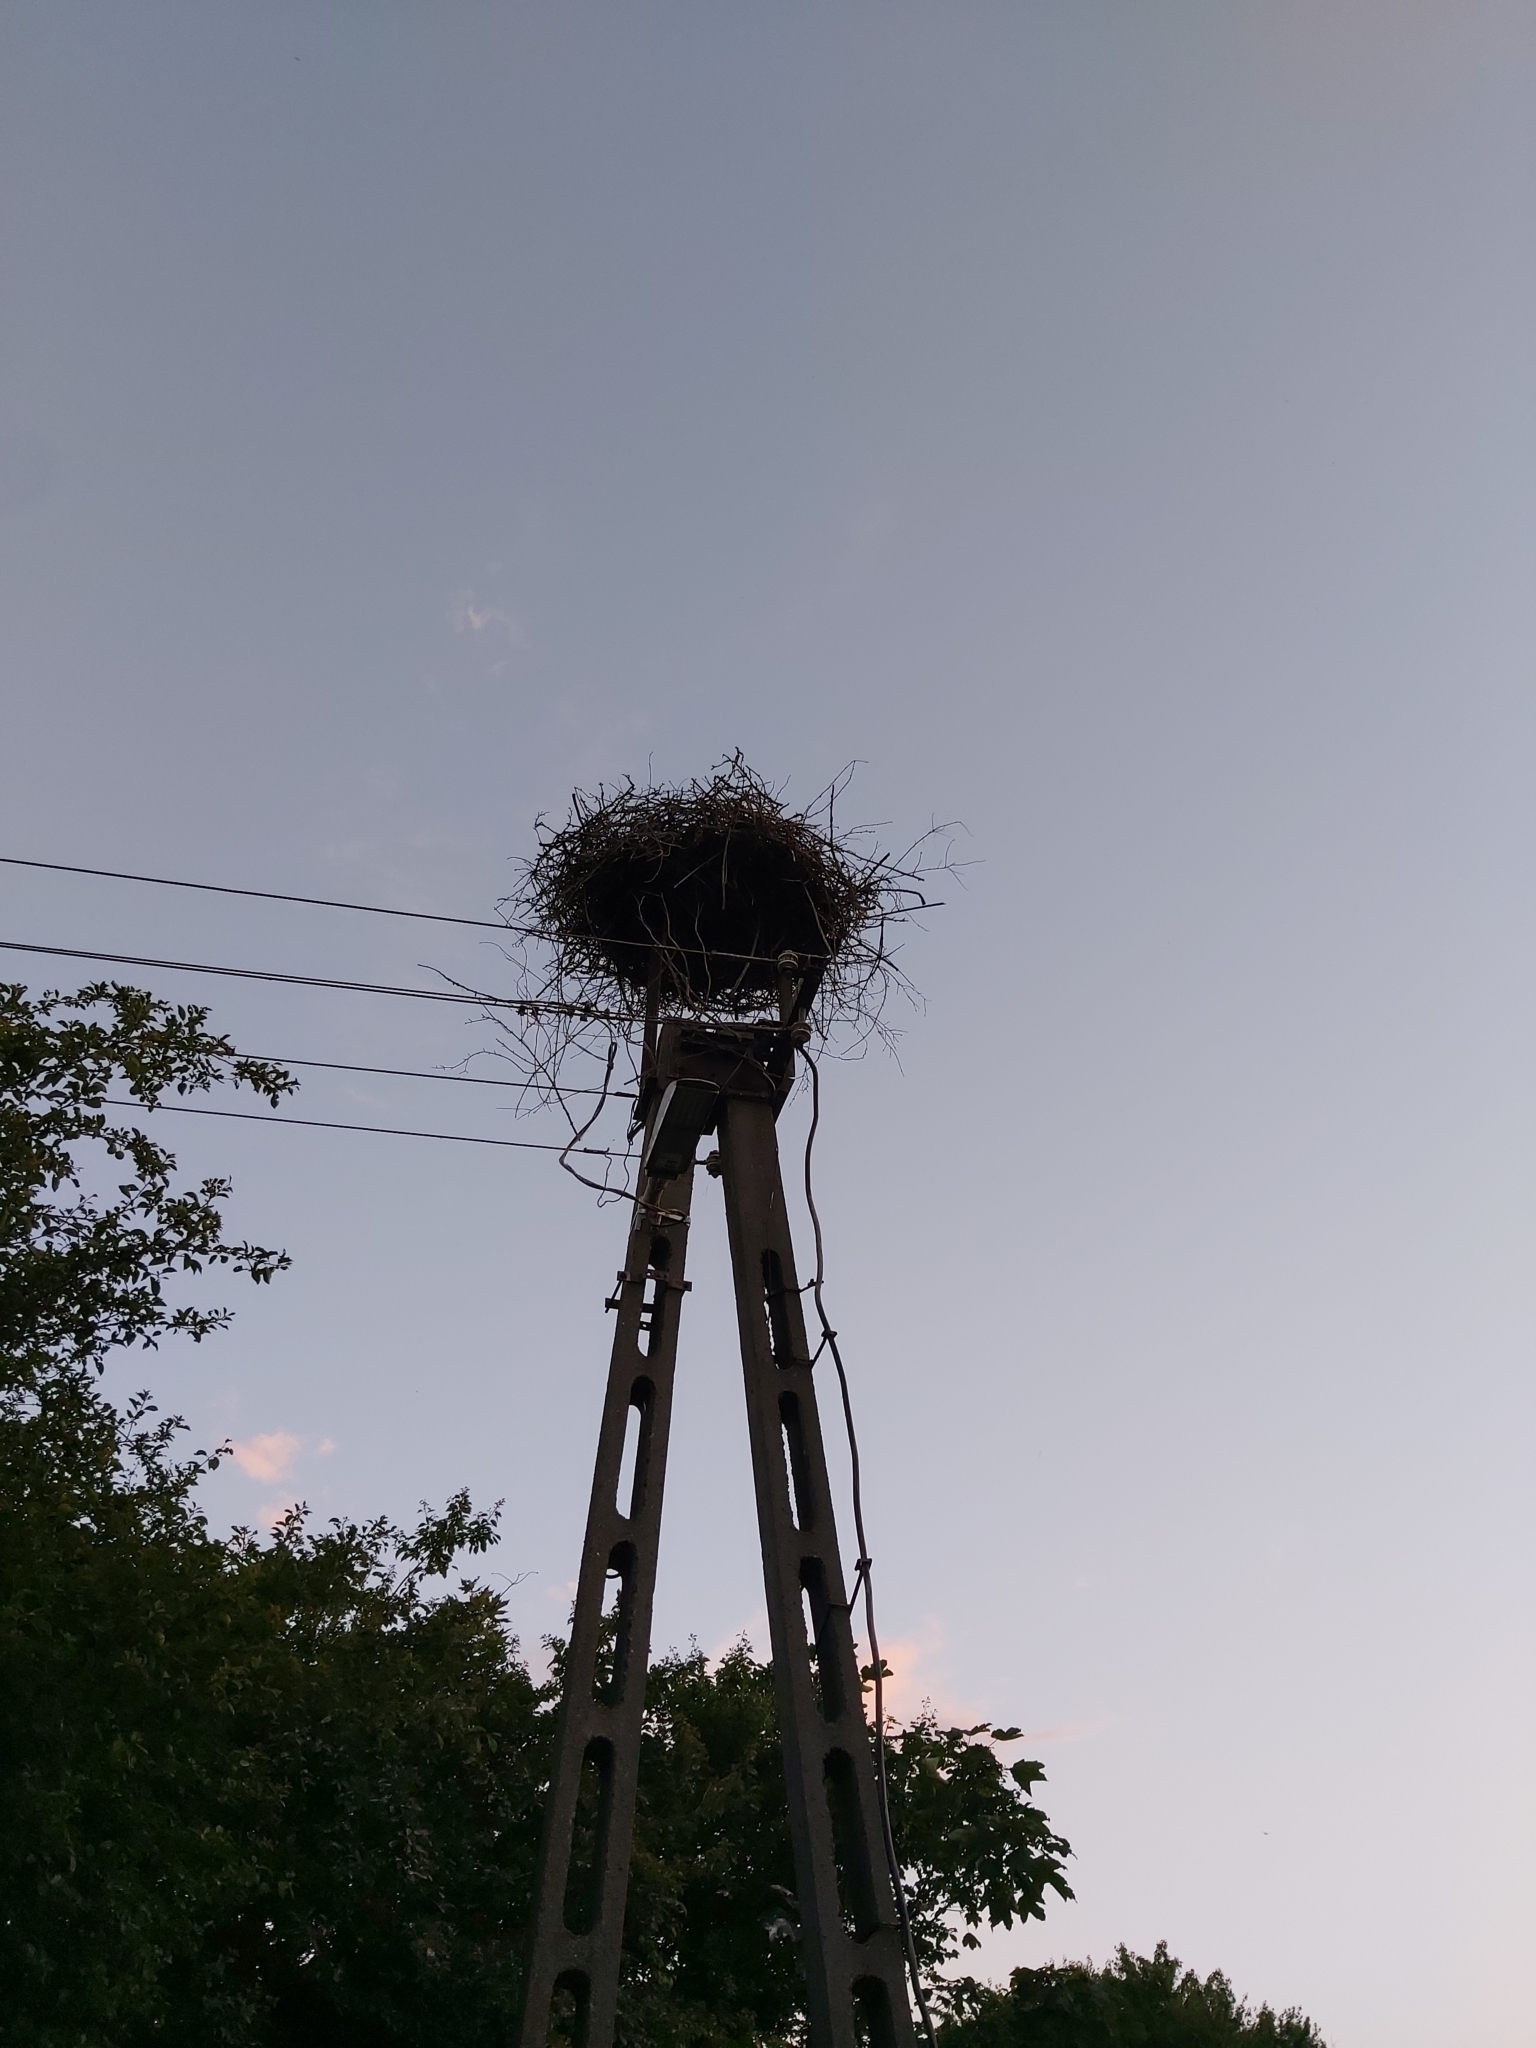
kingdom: Animalia
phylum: Chordata
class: Aves
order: Ciconiiformes
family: Ciconiidae
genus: Ciconia
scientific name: Ciconia ciconia
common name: White stork
